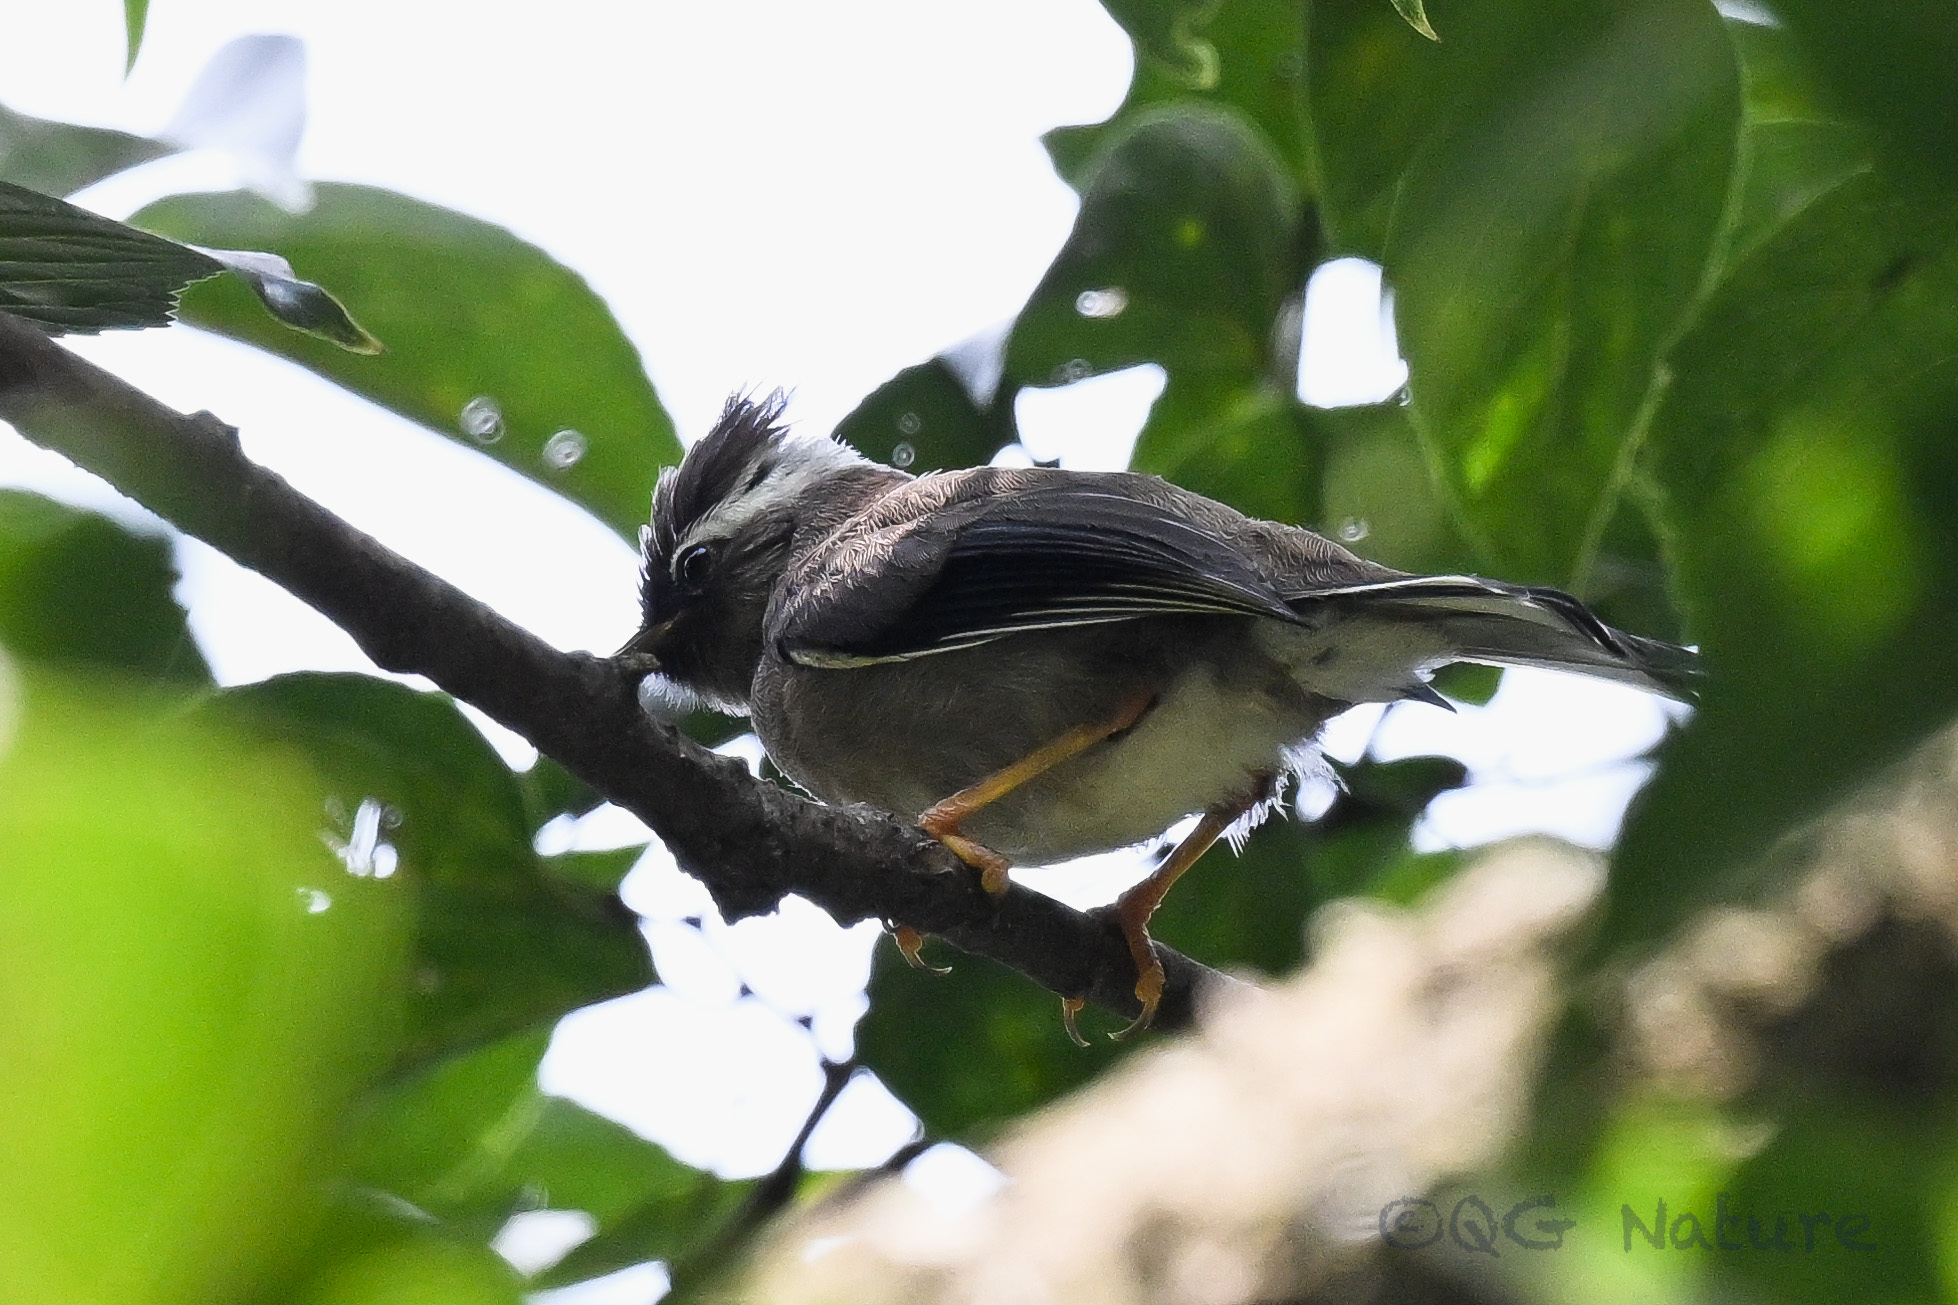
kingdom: Animalia
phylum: Chordata
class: Aves
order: Passeriformes
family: Zosteropidae
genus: Yuhina
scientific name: Yuhina diademata
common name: White-collared yuhina
